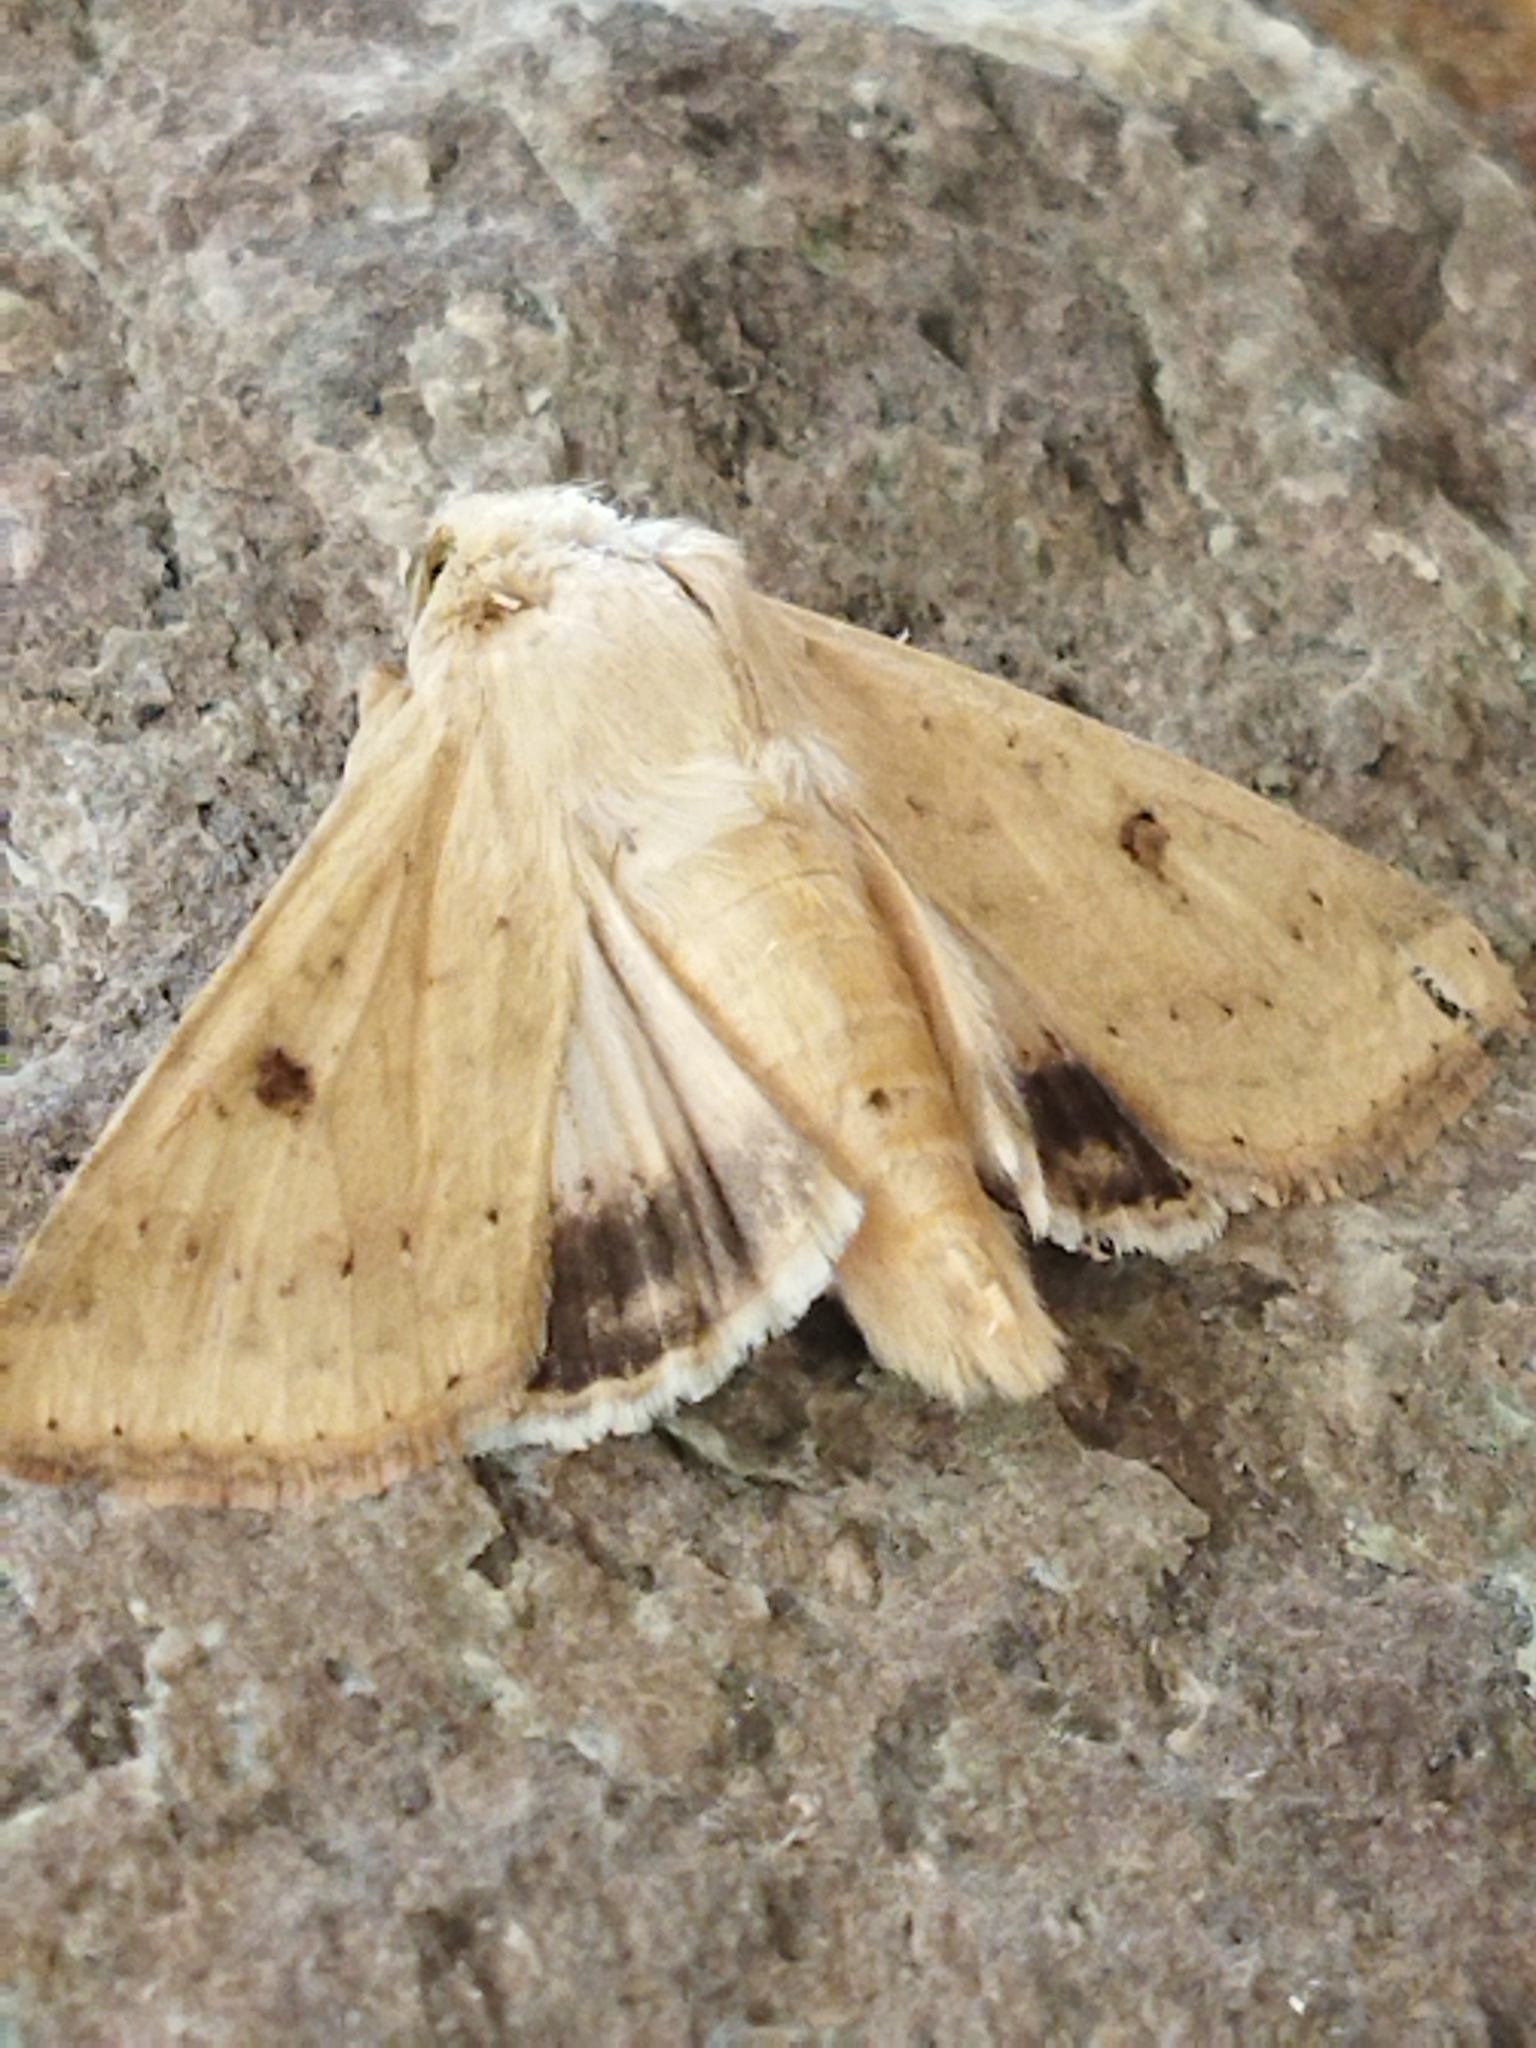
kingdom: Animalia
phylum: Arthropoda
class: Insecta
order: Lepidoptera
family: Noctuidae
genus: Helicoverpa
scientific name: Helicoverpa armigera
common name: Cotton bollworm
